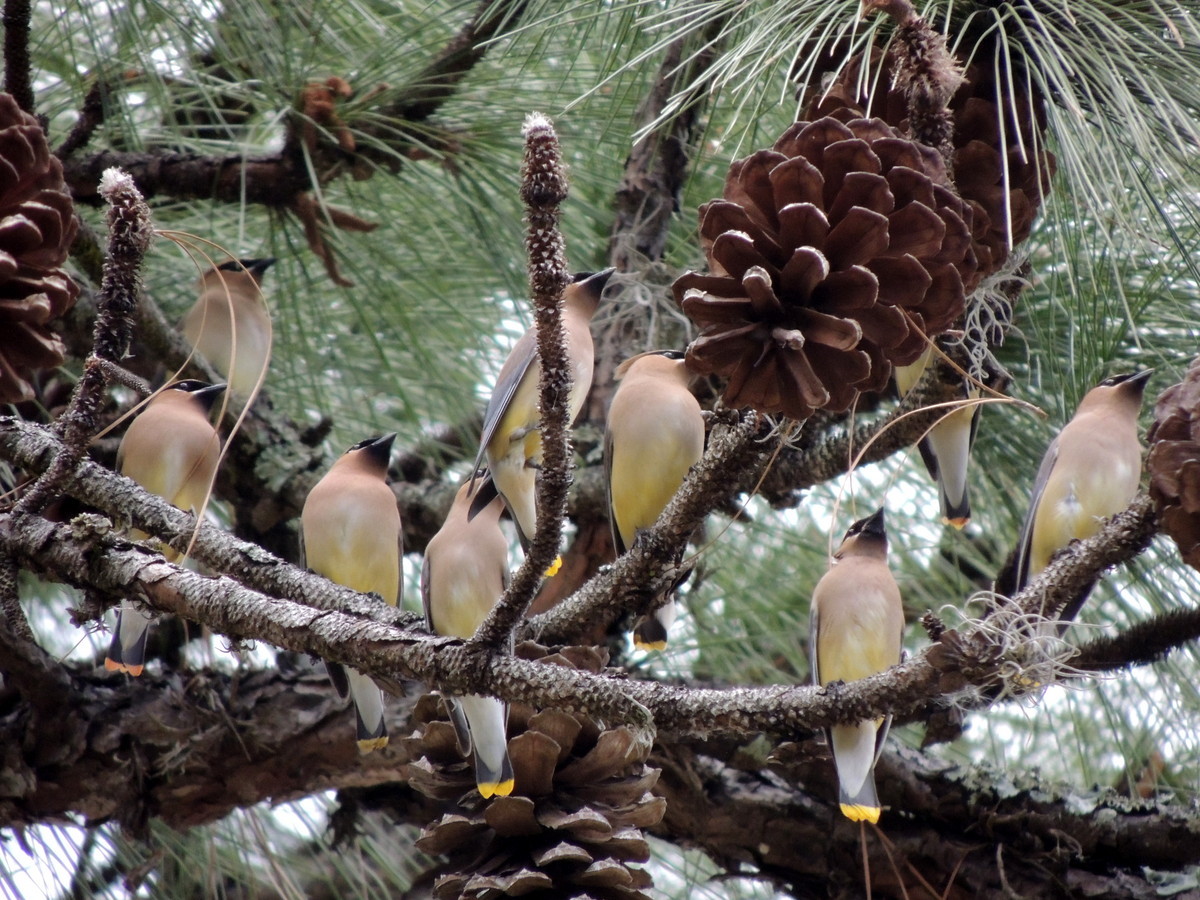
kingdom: Animalia
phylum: Chordata
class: Aves
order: Passeriformes
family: Bombycillidae
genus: Bombycilla
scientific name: Bombycilla cedrorum
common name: Cedar waxwing
